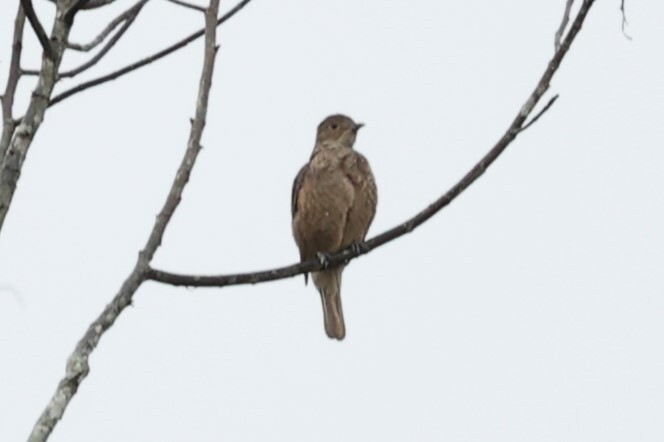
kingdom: Animalia
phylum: Chordata
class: Aves
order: Passeriformes
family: Cotingidae
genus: Cotinga
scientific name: Cotinga cayana
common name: Spangled cotinga
